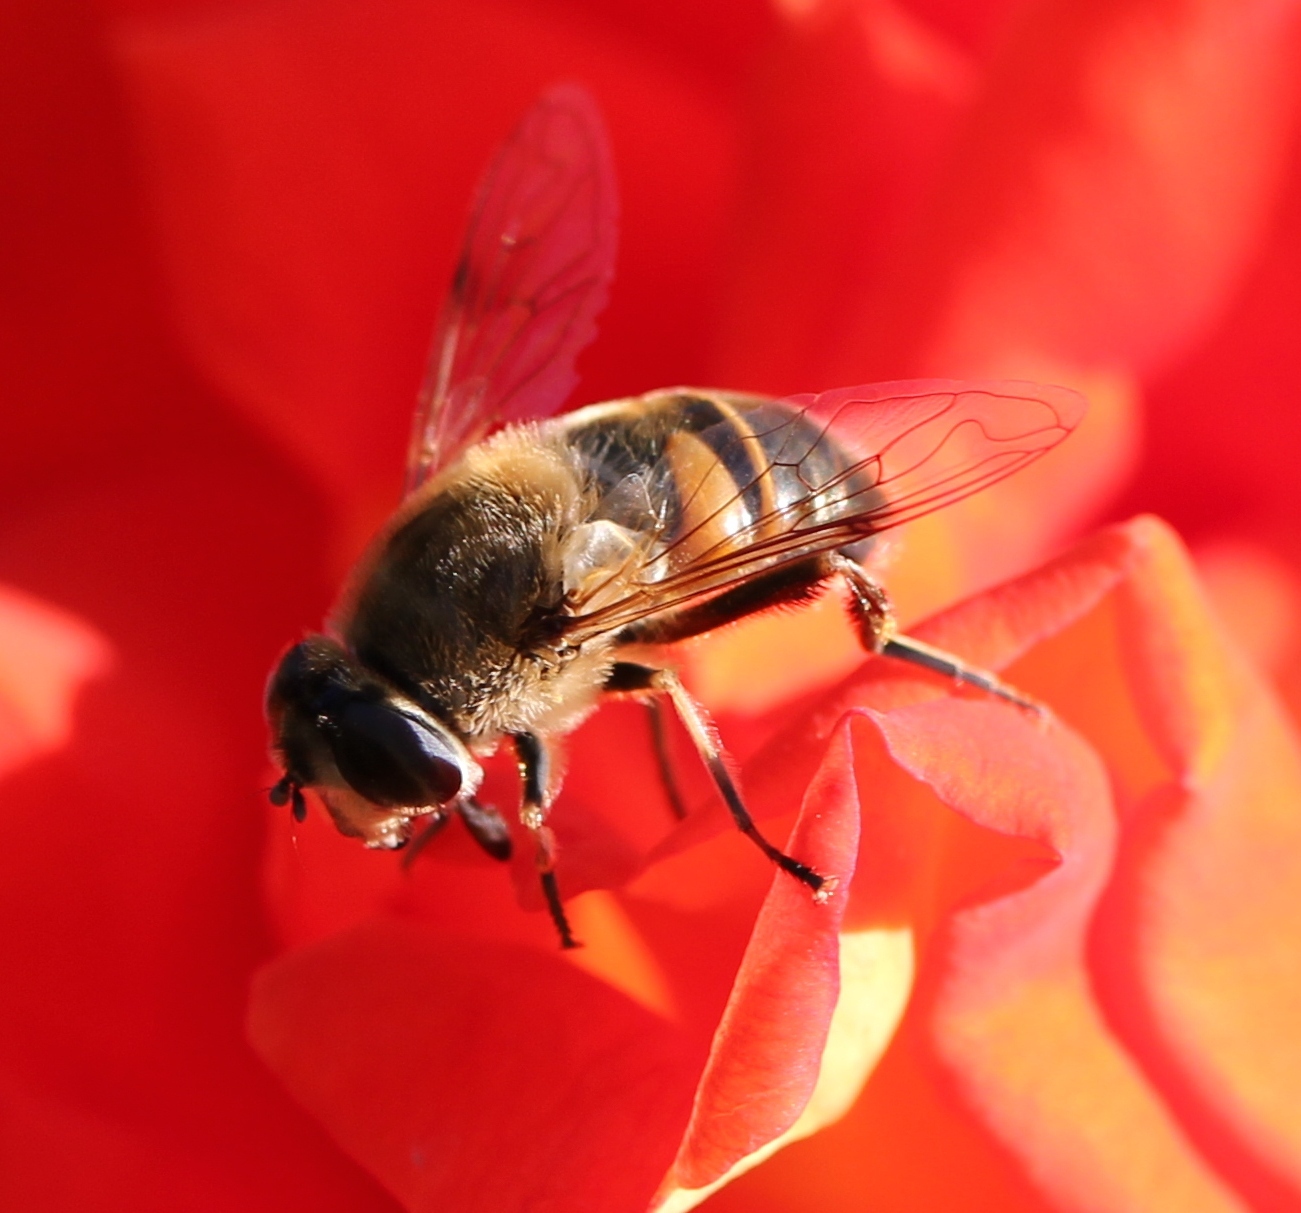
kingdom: Animalia
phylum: Arthropoda
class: Insecta
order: Diptera
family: Syrphidae
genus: Eristalis
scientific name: Eristalis tenax
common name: Drone fly
